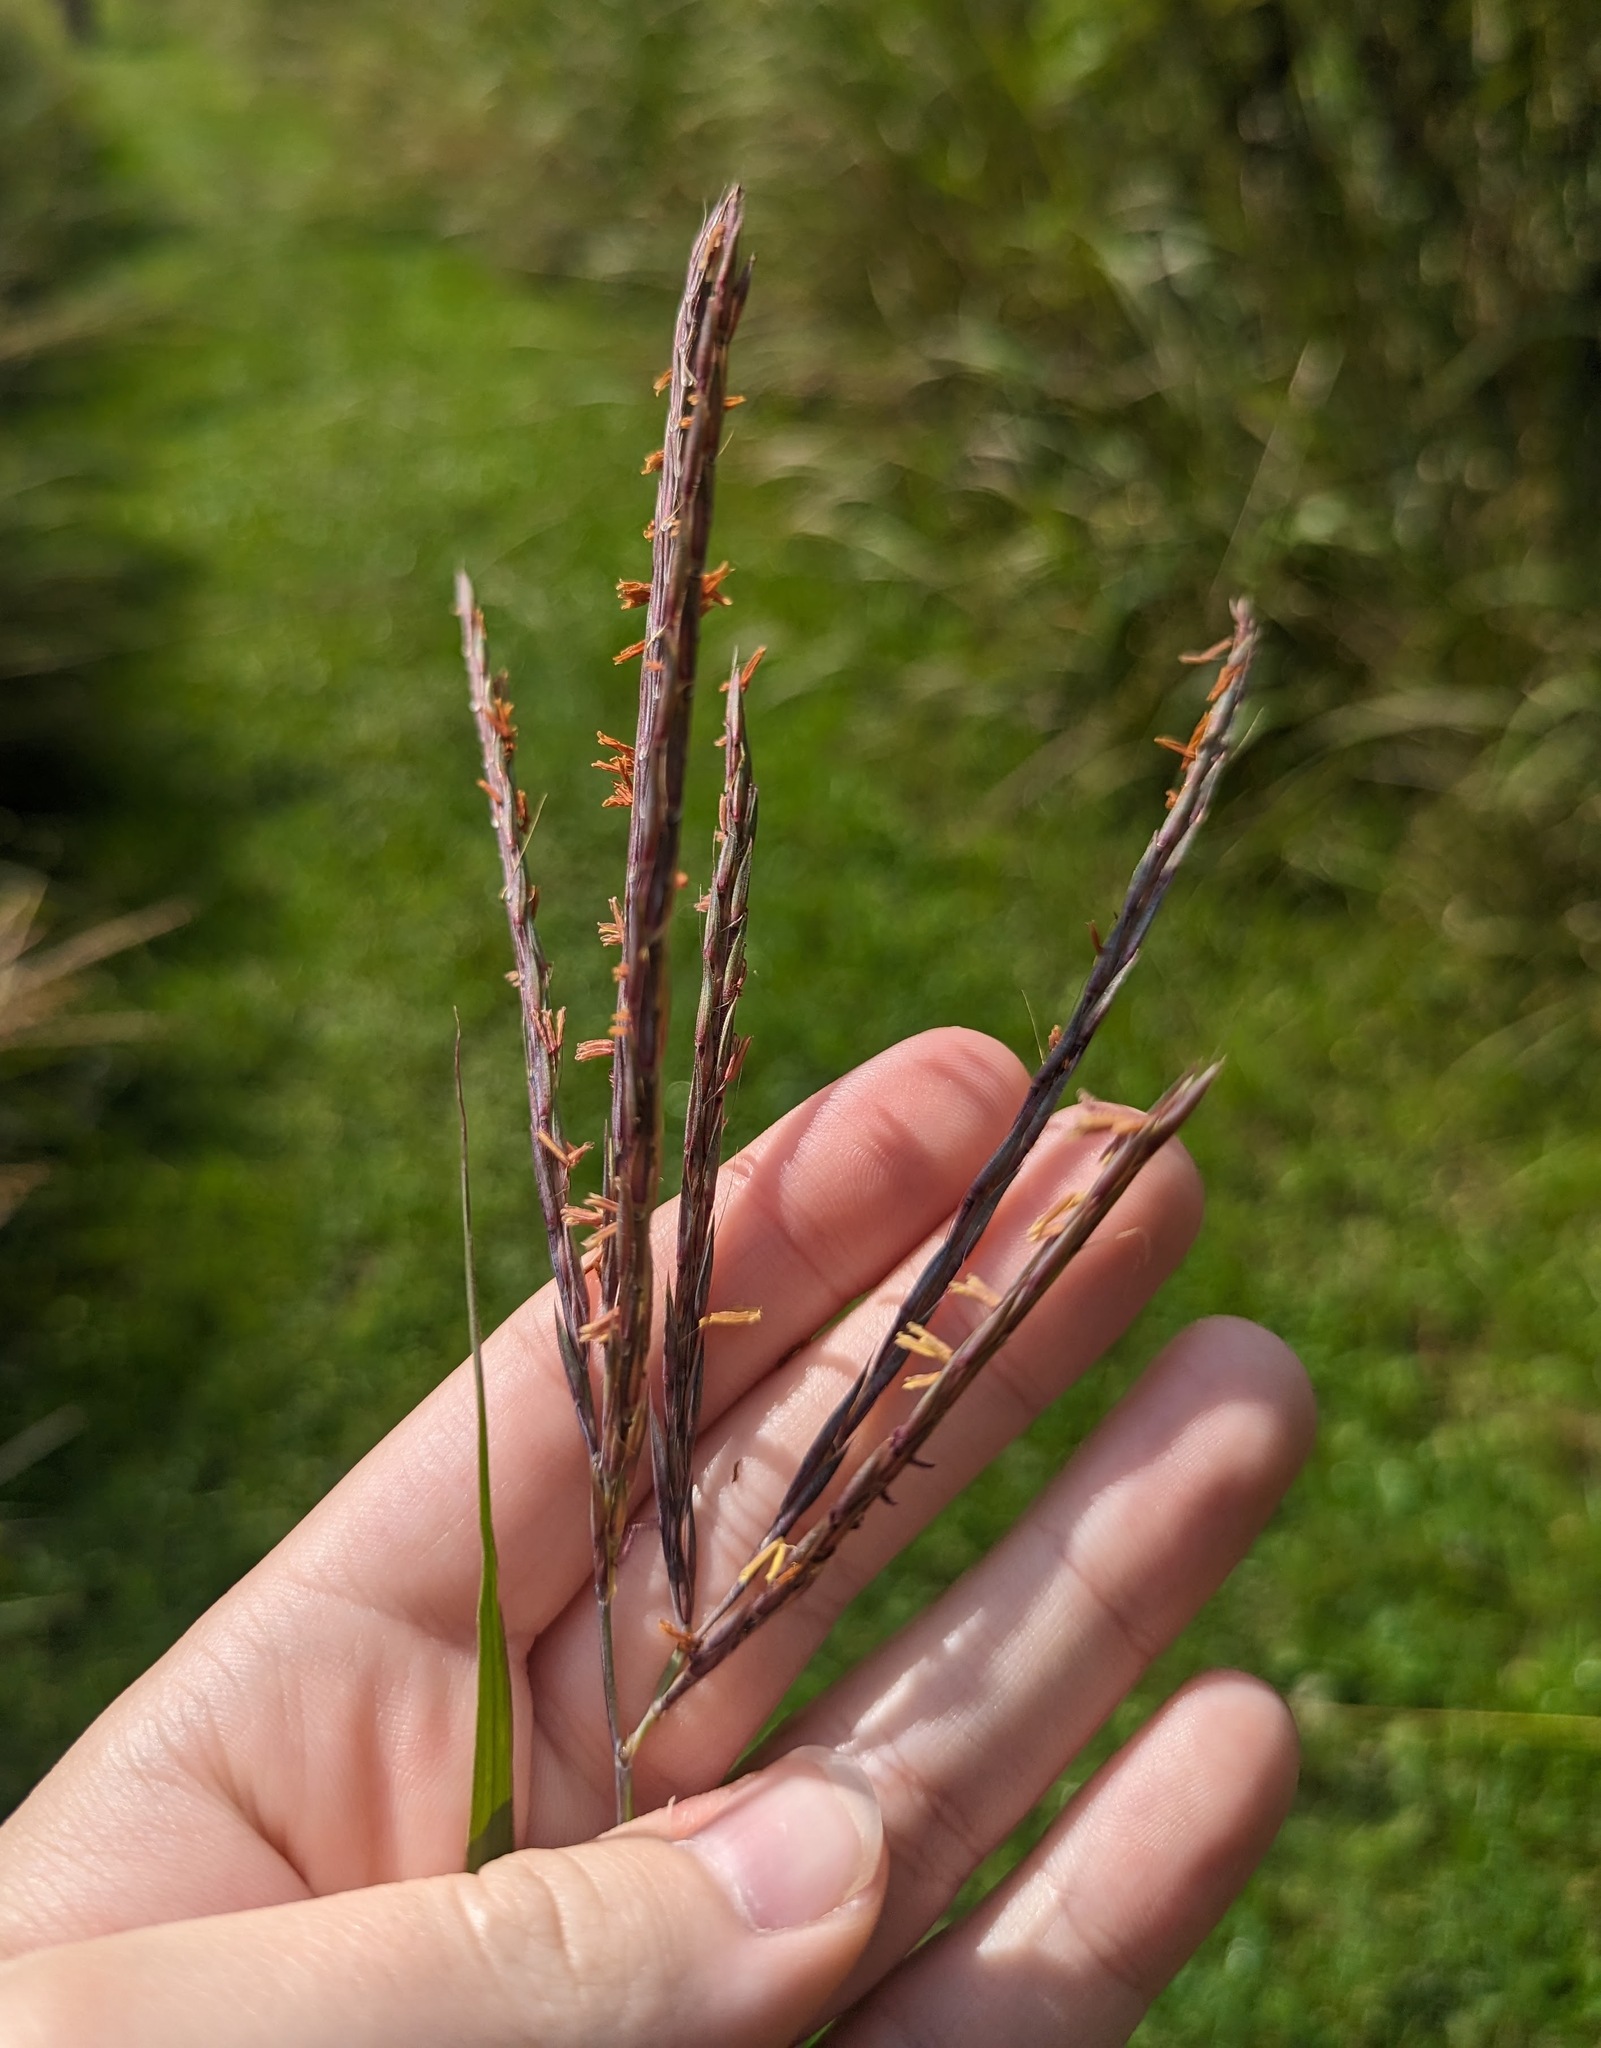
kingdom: Plantae
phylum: Tracheophyta
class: Liliopsida
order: Poales
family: Poaceae
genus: Andropogon
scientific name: Andropogon gerardi
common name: Big bluestem
